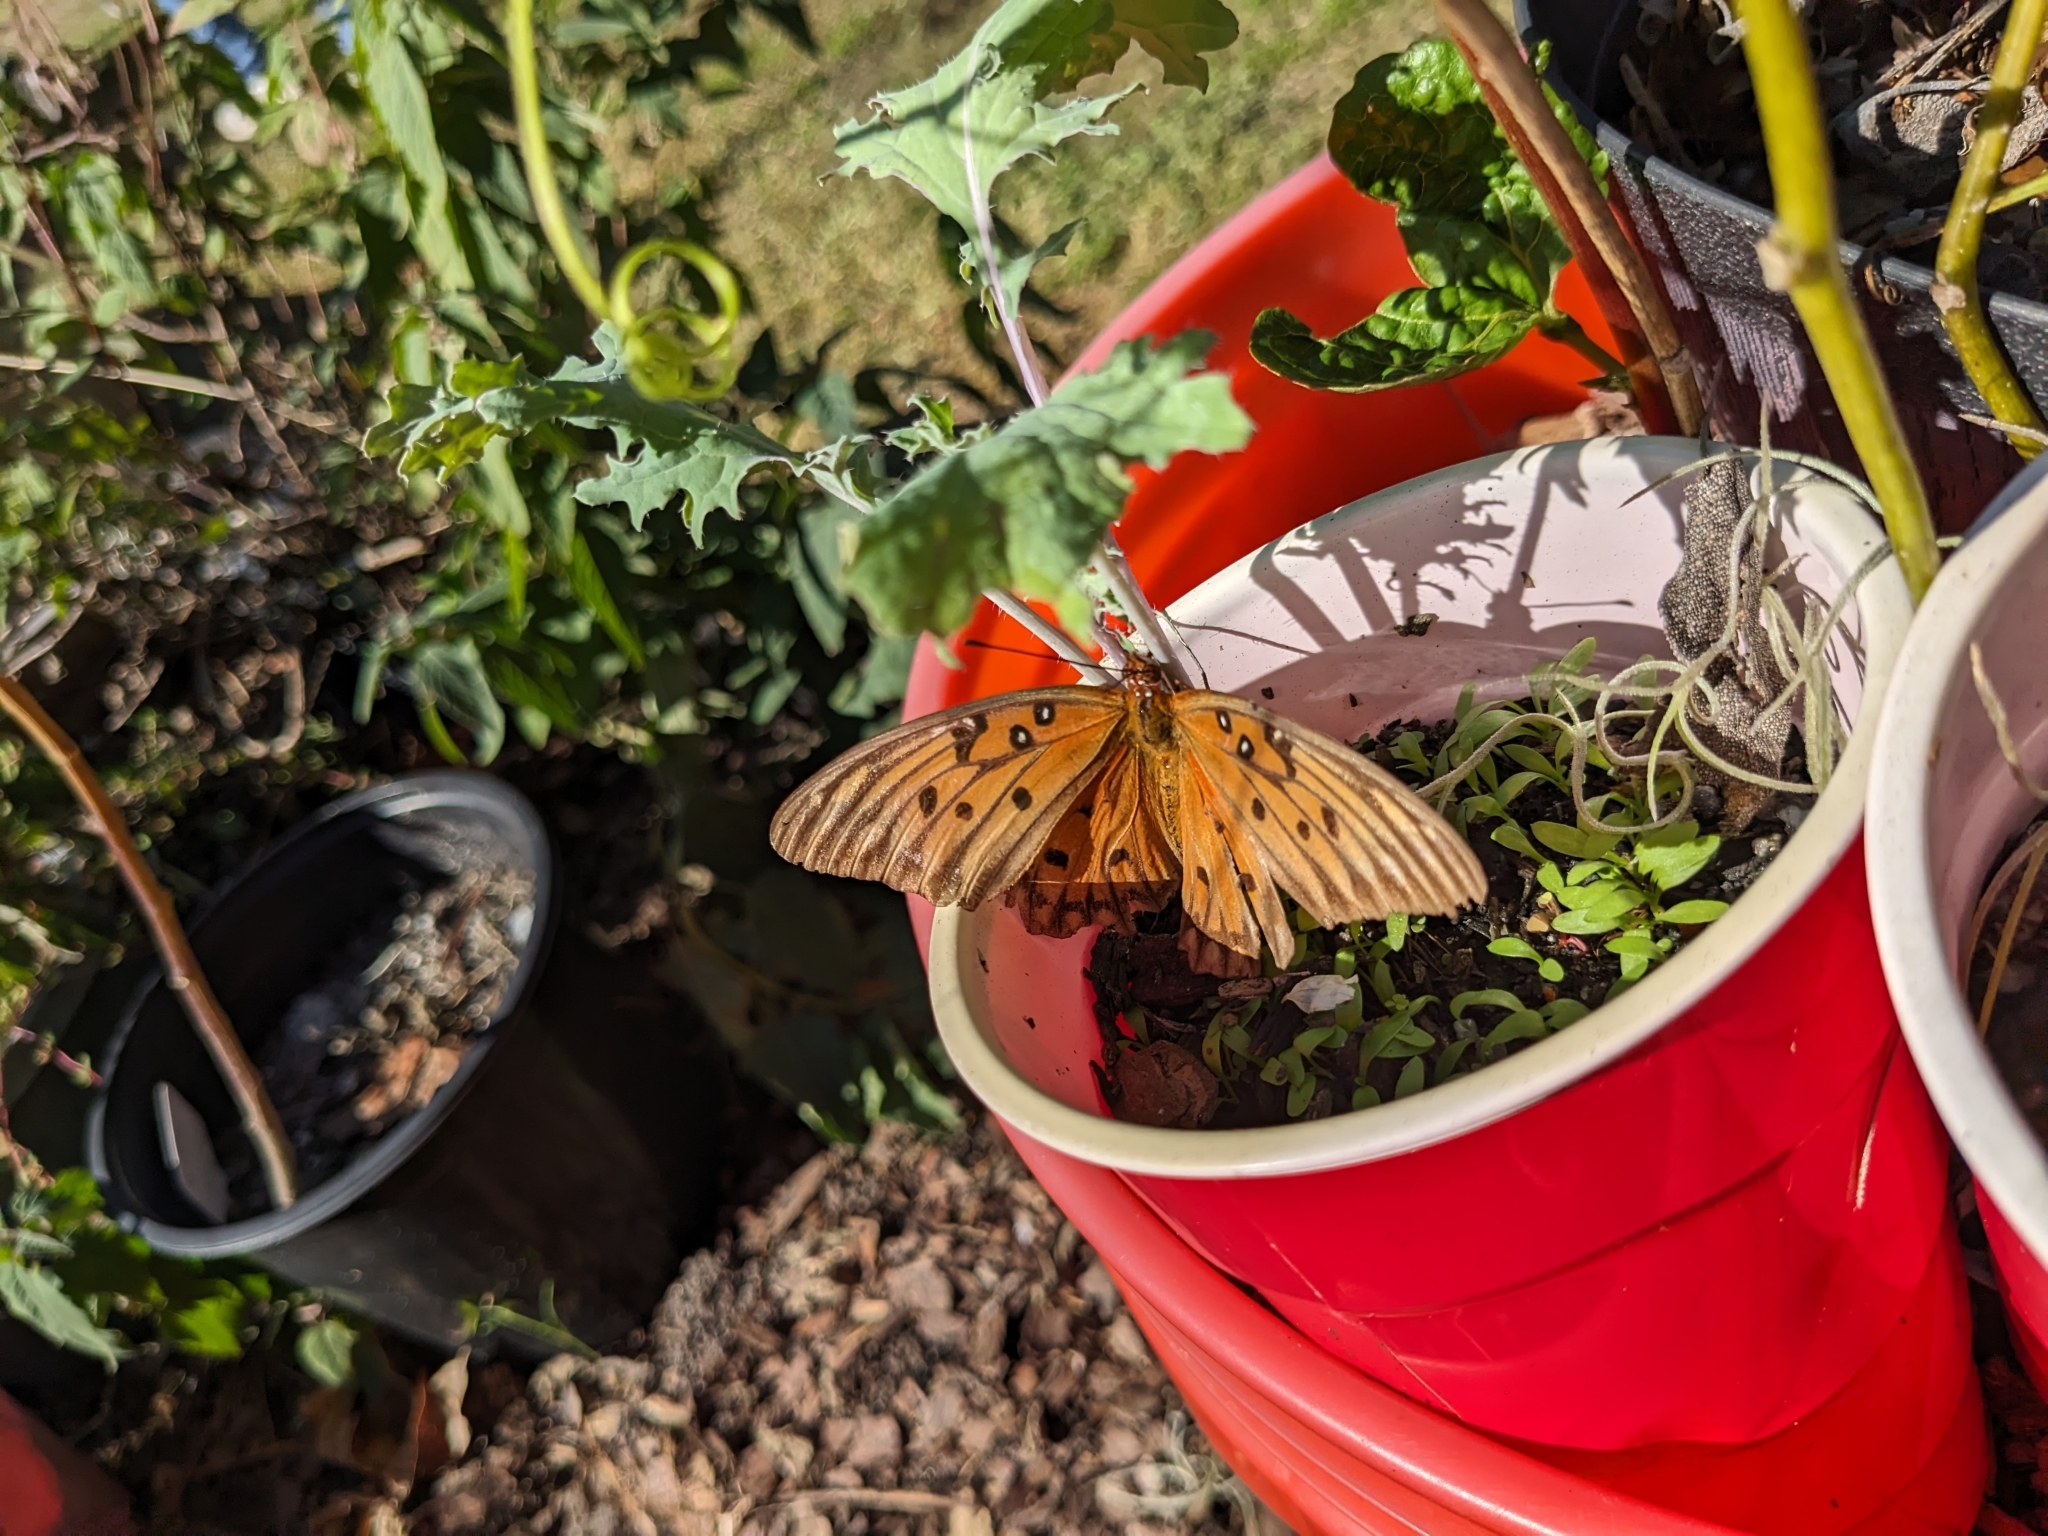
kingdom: Animalia
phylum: Arthropoda
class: Insecta
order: Lepidoptera
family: Nymphalidae
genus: Dione
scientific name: Dione vanillae
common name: Gulf fritillary
